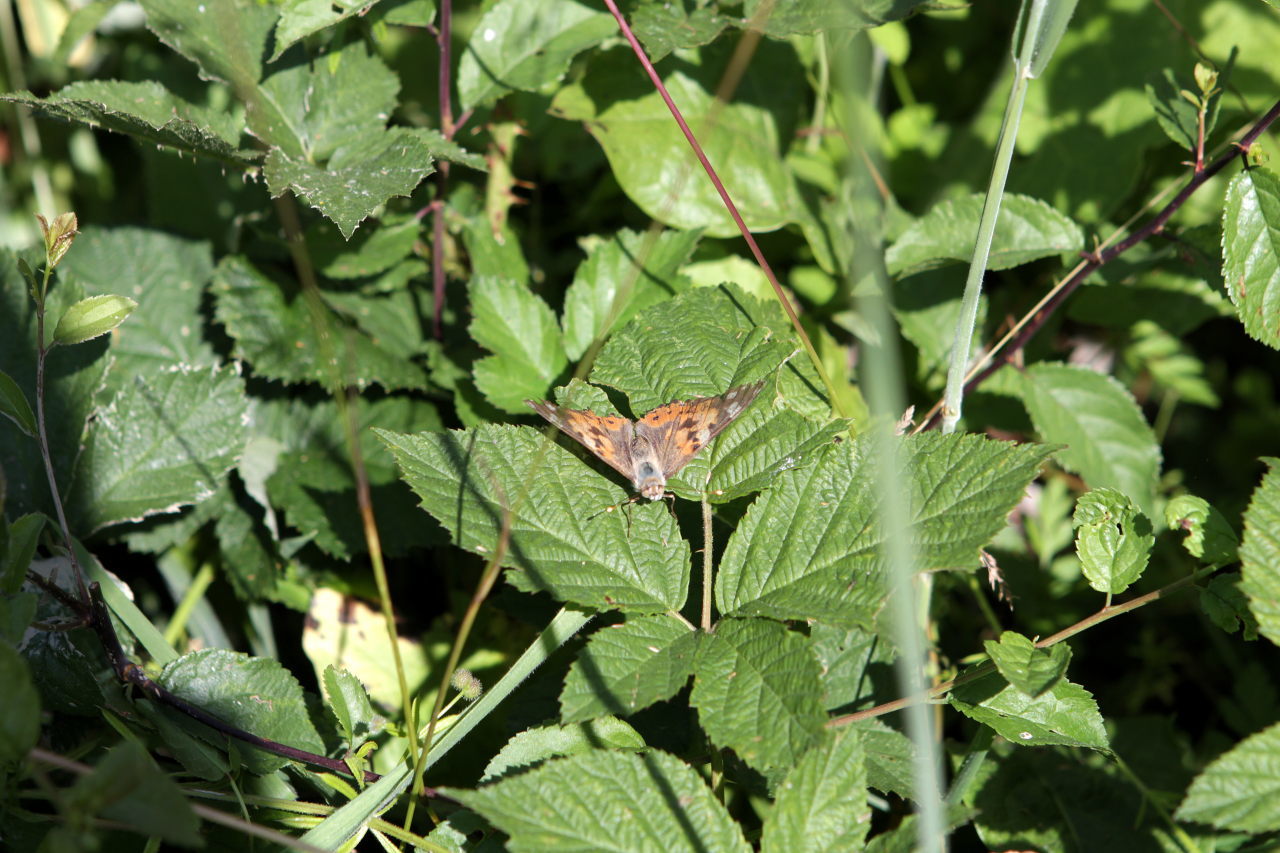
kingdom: Animalia
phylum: Arthropoda
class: Insecta
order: Lepidoptera
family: Nymphalidae
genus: Vanessa
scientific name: Vanessa cardui
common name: Painted lady
